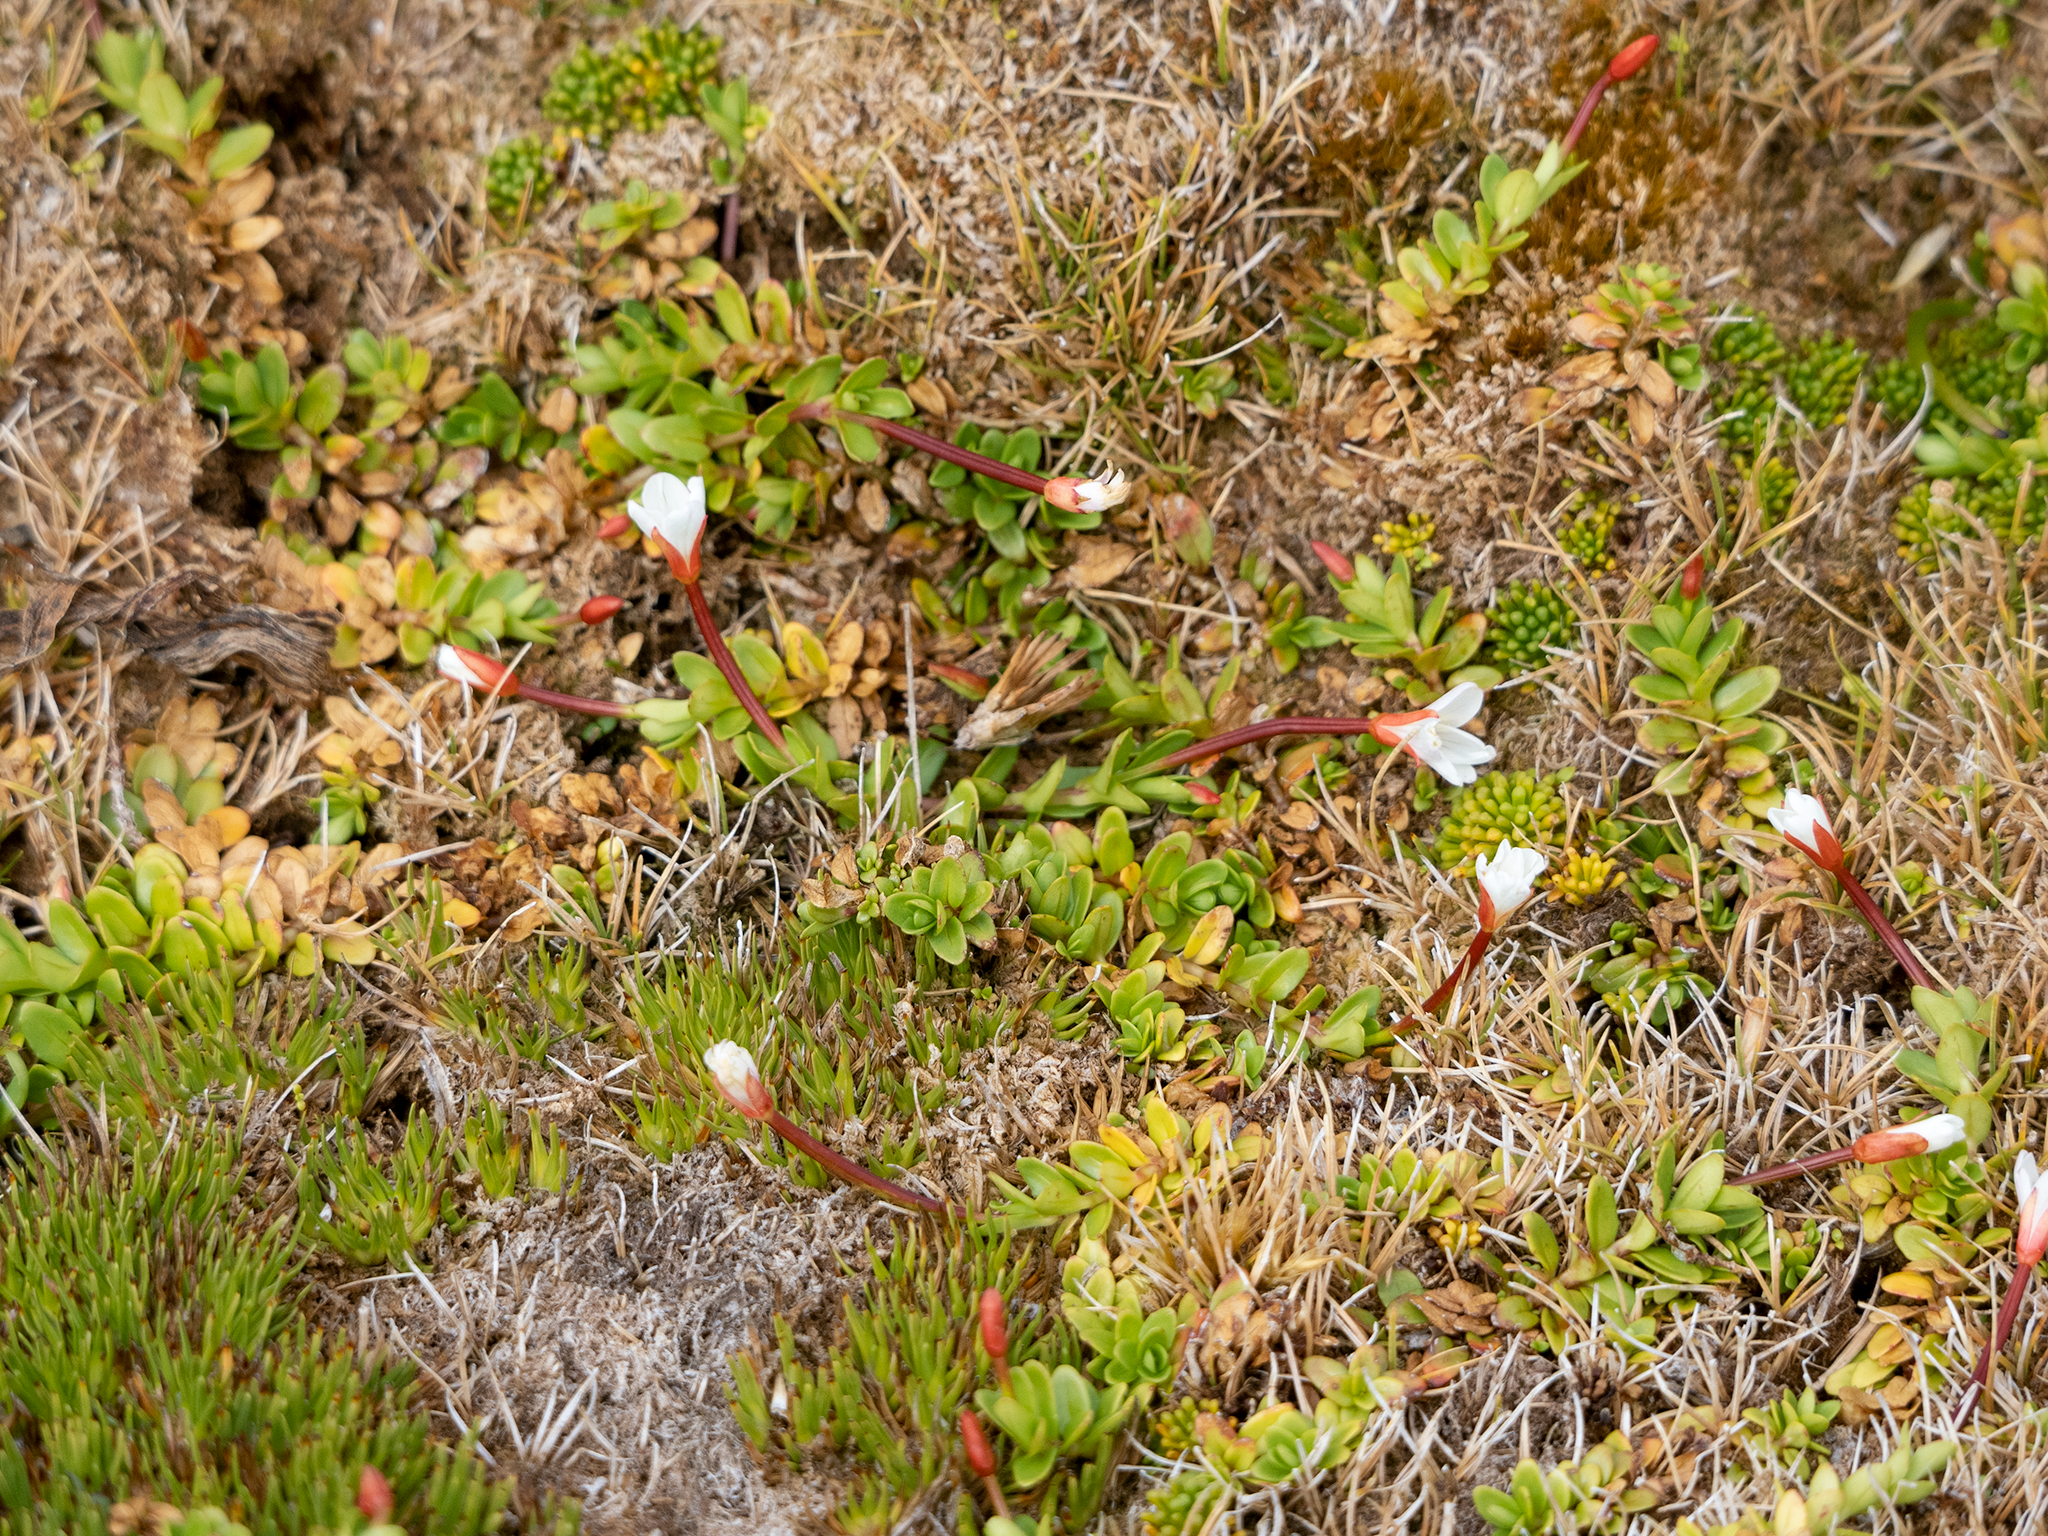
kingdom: Plantae
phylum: Tracheophyta
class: Magnoliopsida
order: Myrtales
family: Onagraceae
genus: Epilobium
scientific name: Epilobium confertifolium
